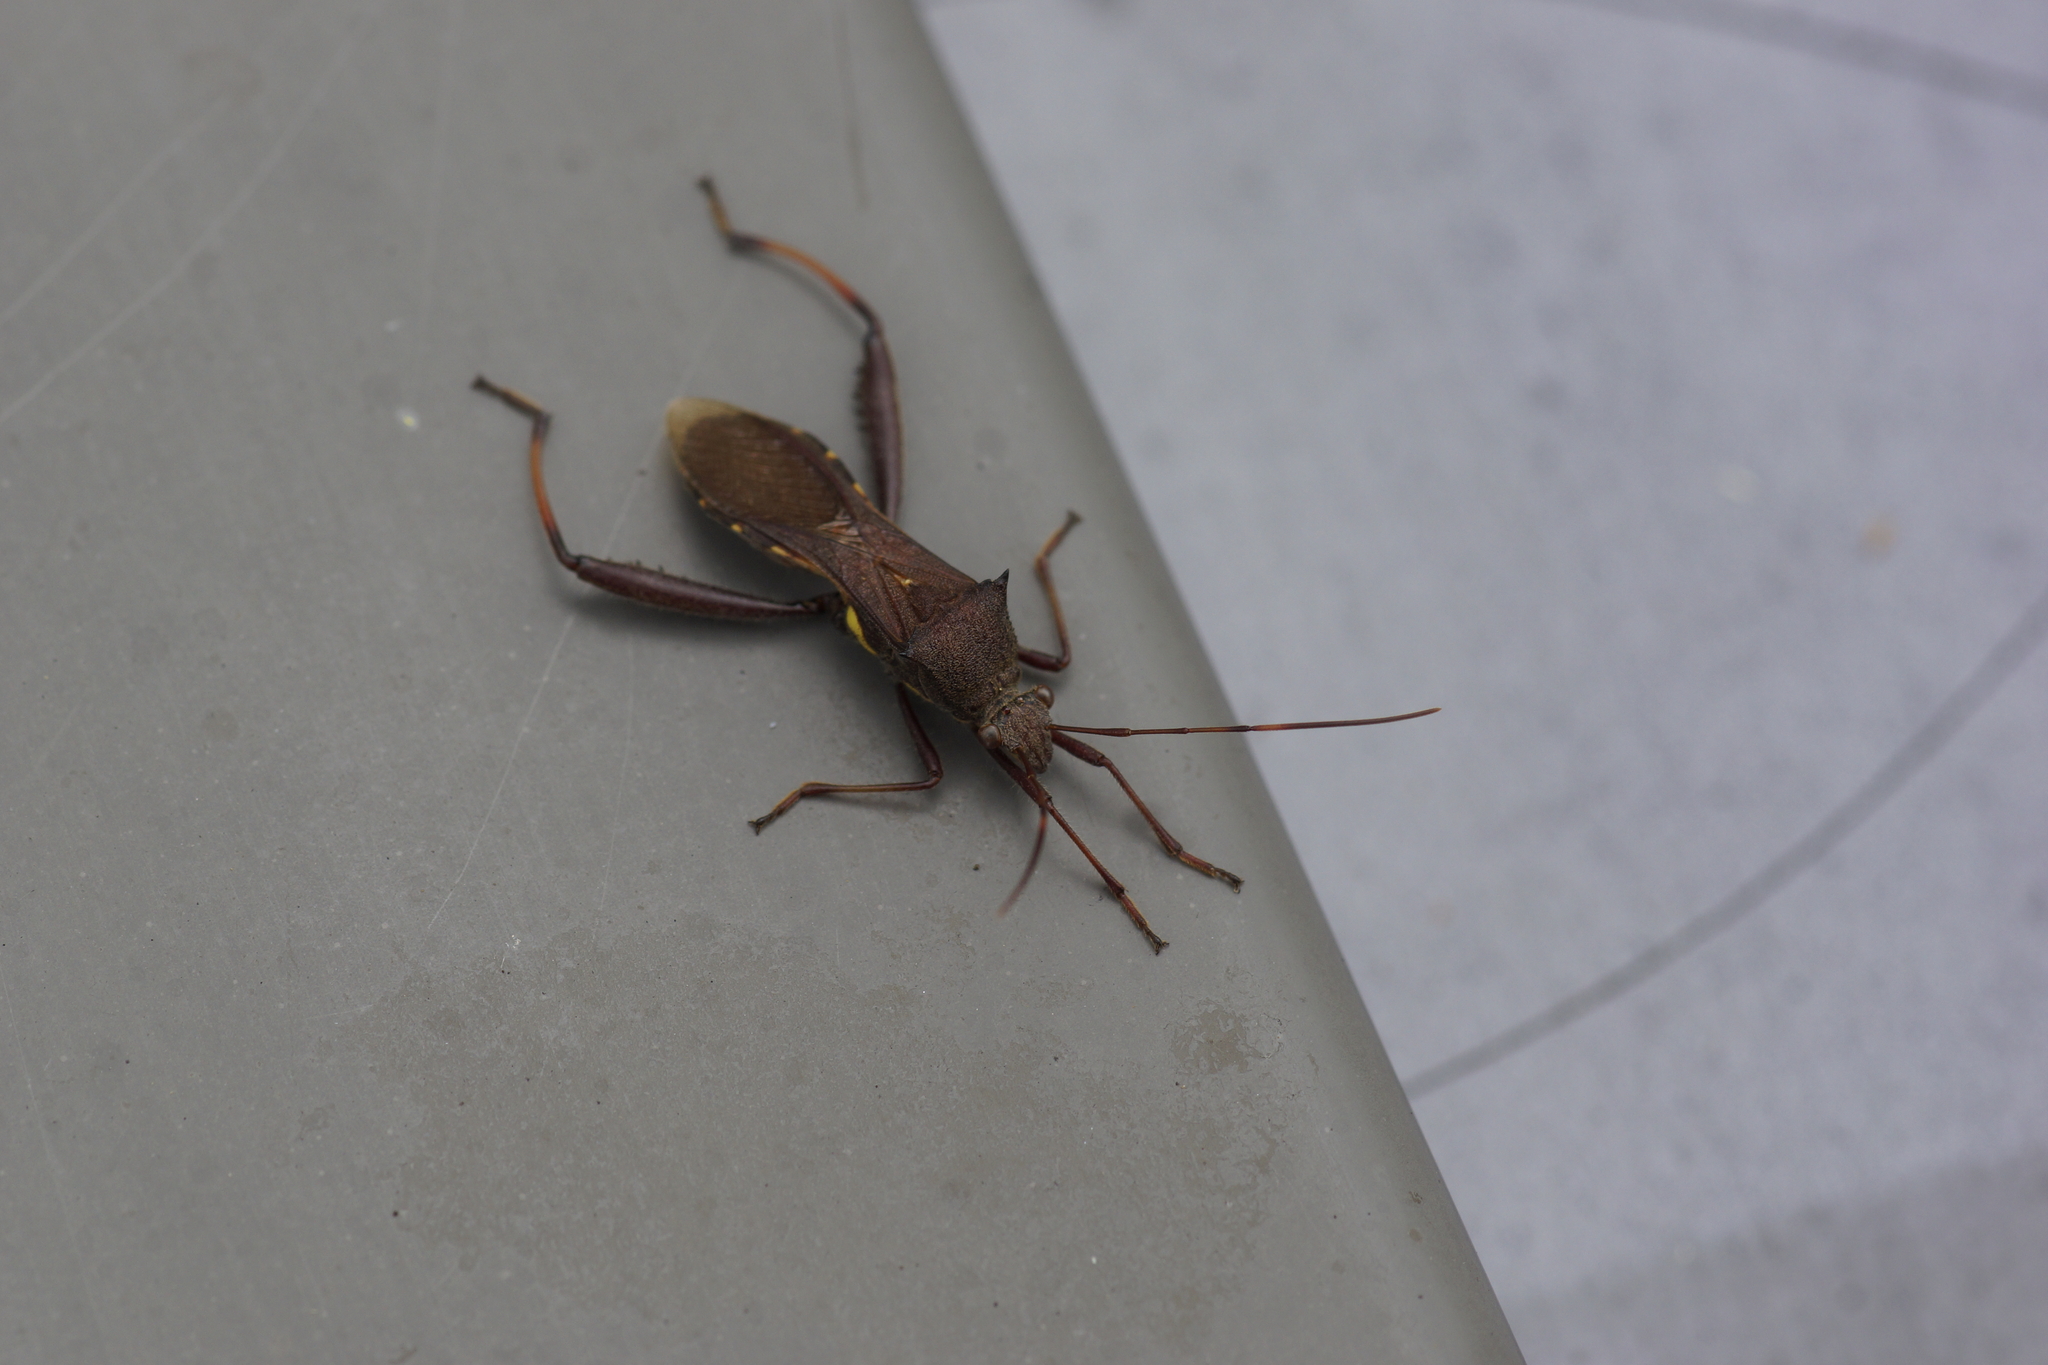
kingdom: Animalia
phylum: Arthropoda
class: Insecta
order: Hemiptera
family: Alydidae
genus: Riptortus
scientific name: Riptortus serripes
